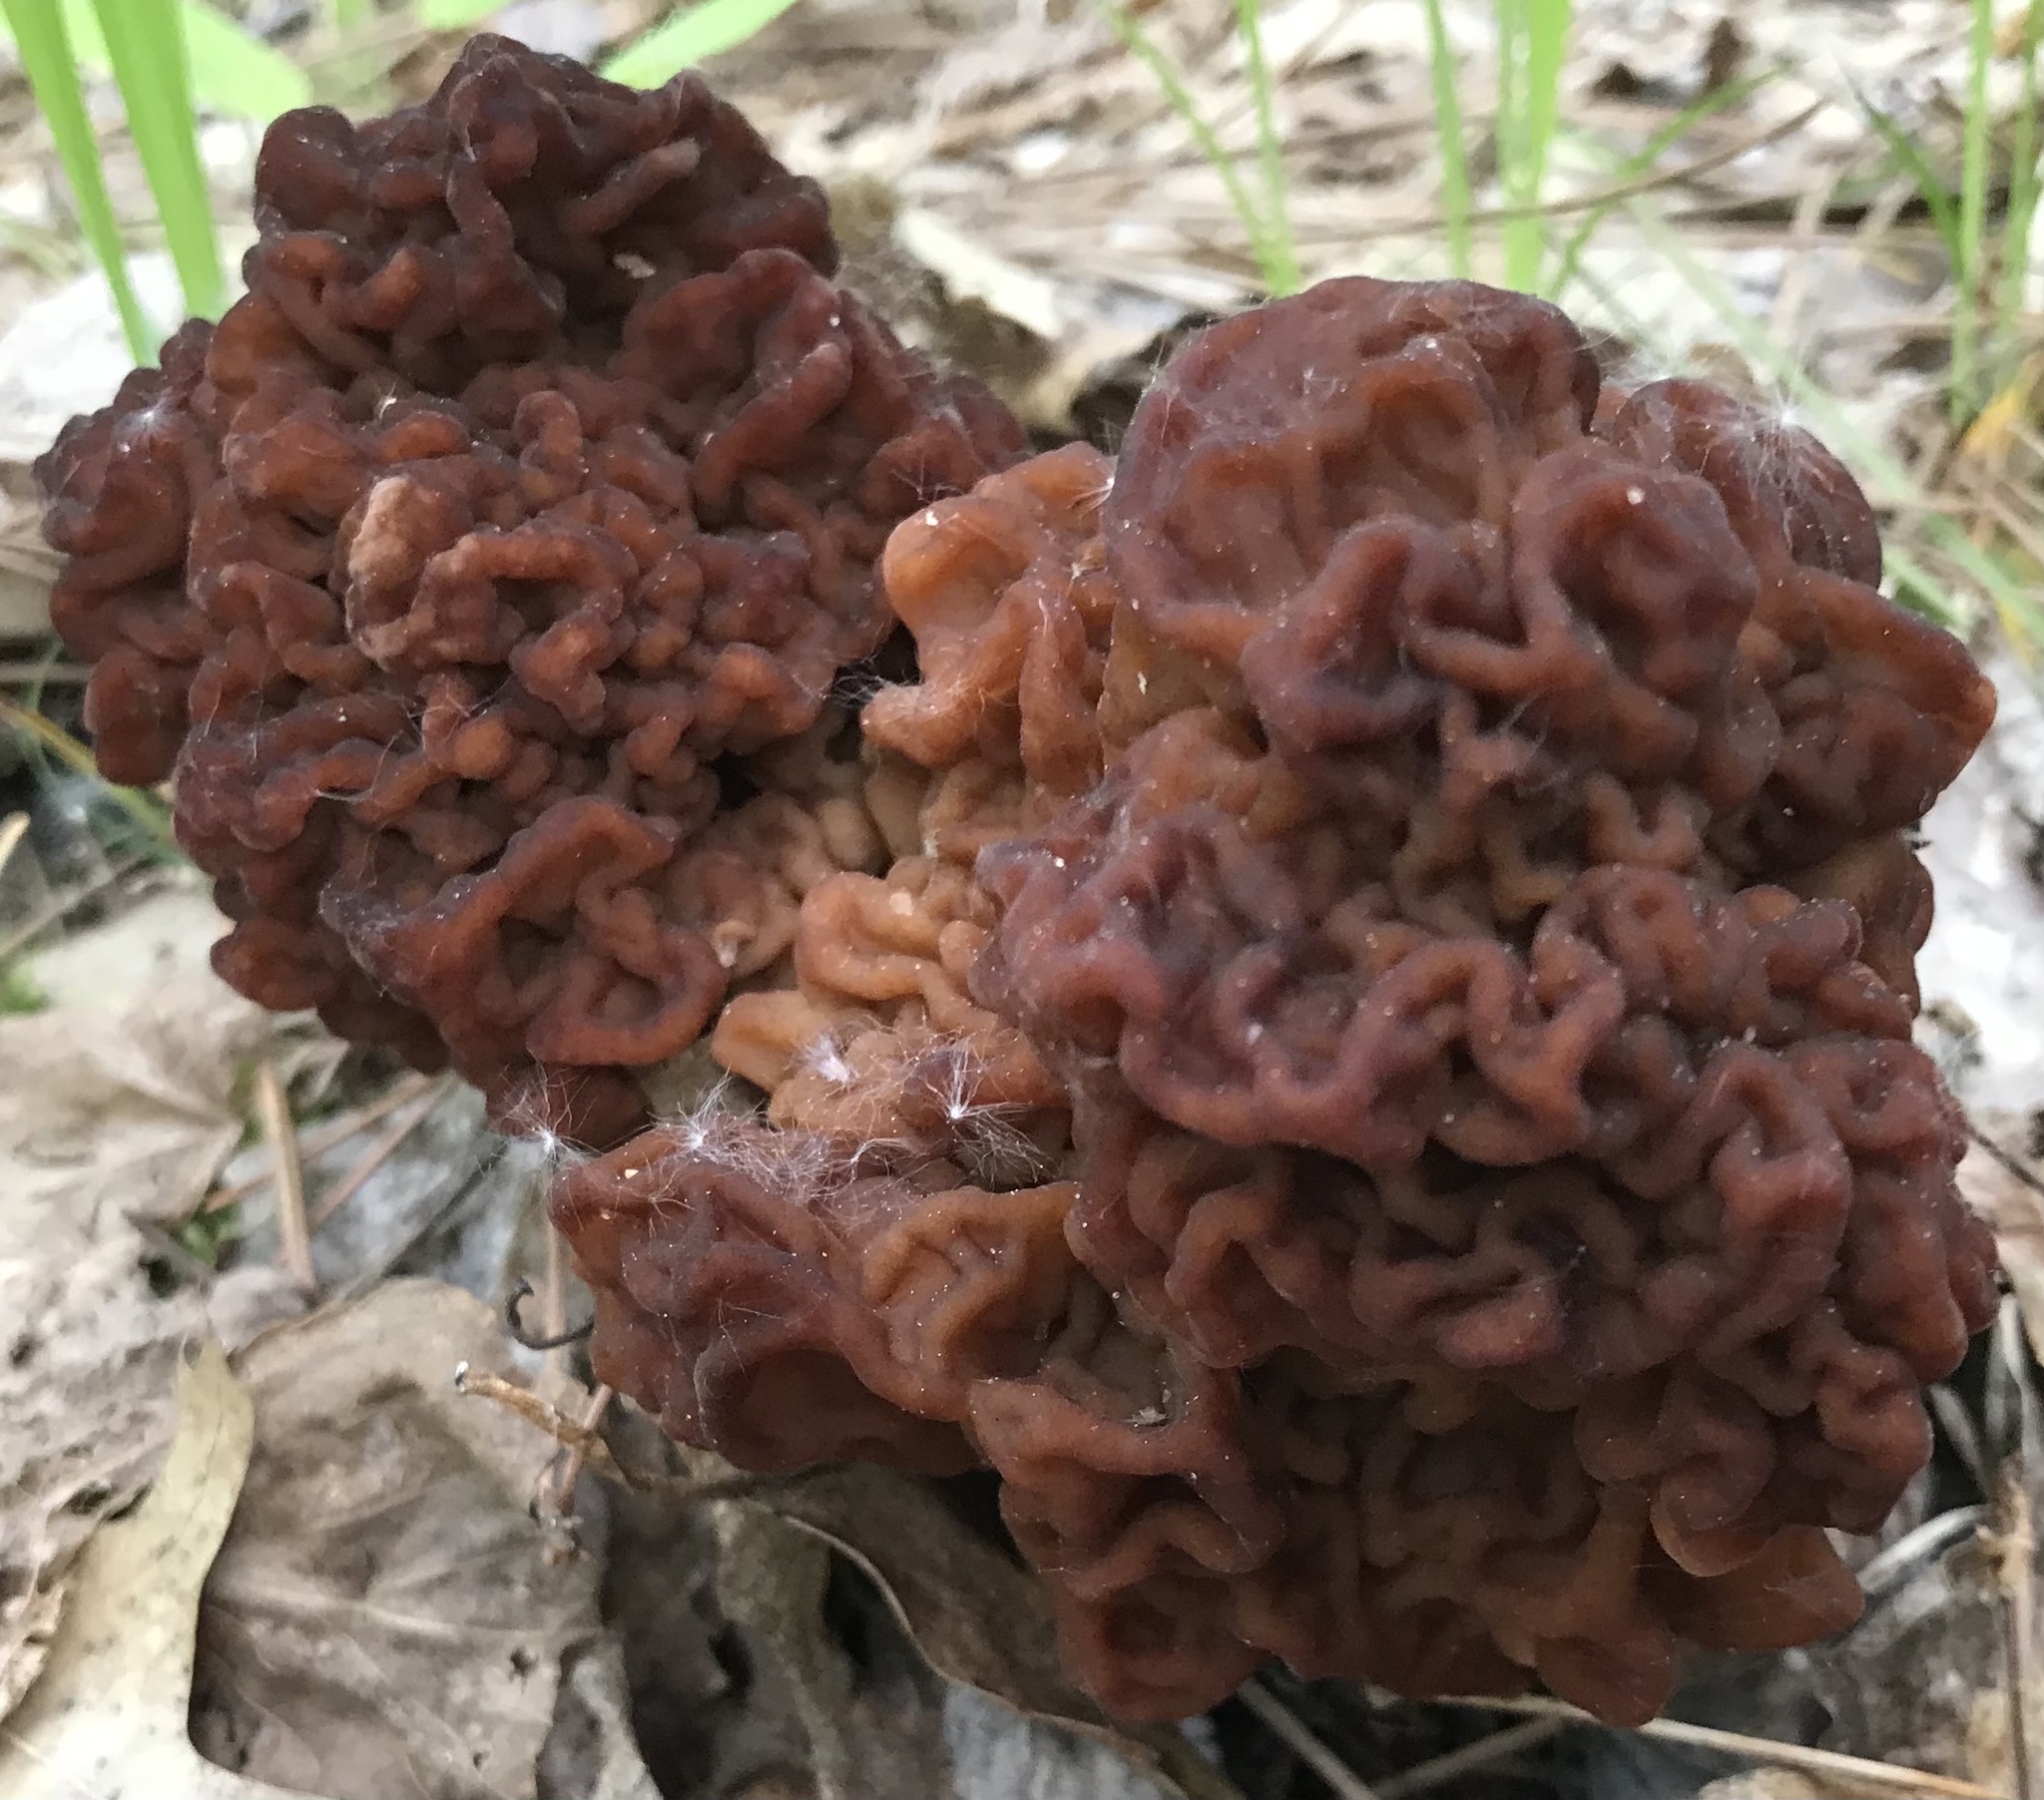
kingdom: Fungi
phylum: Ascomycota
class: Pezizomycetes
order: Pezizales
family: Discinaceae
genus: Gyromitra
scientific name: Gyromitra esculenta
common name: False morel
